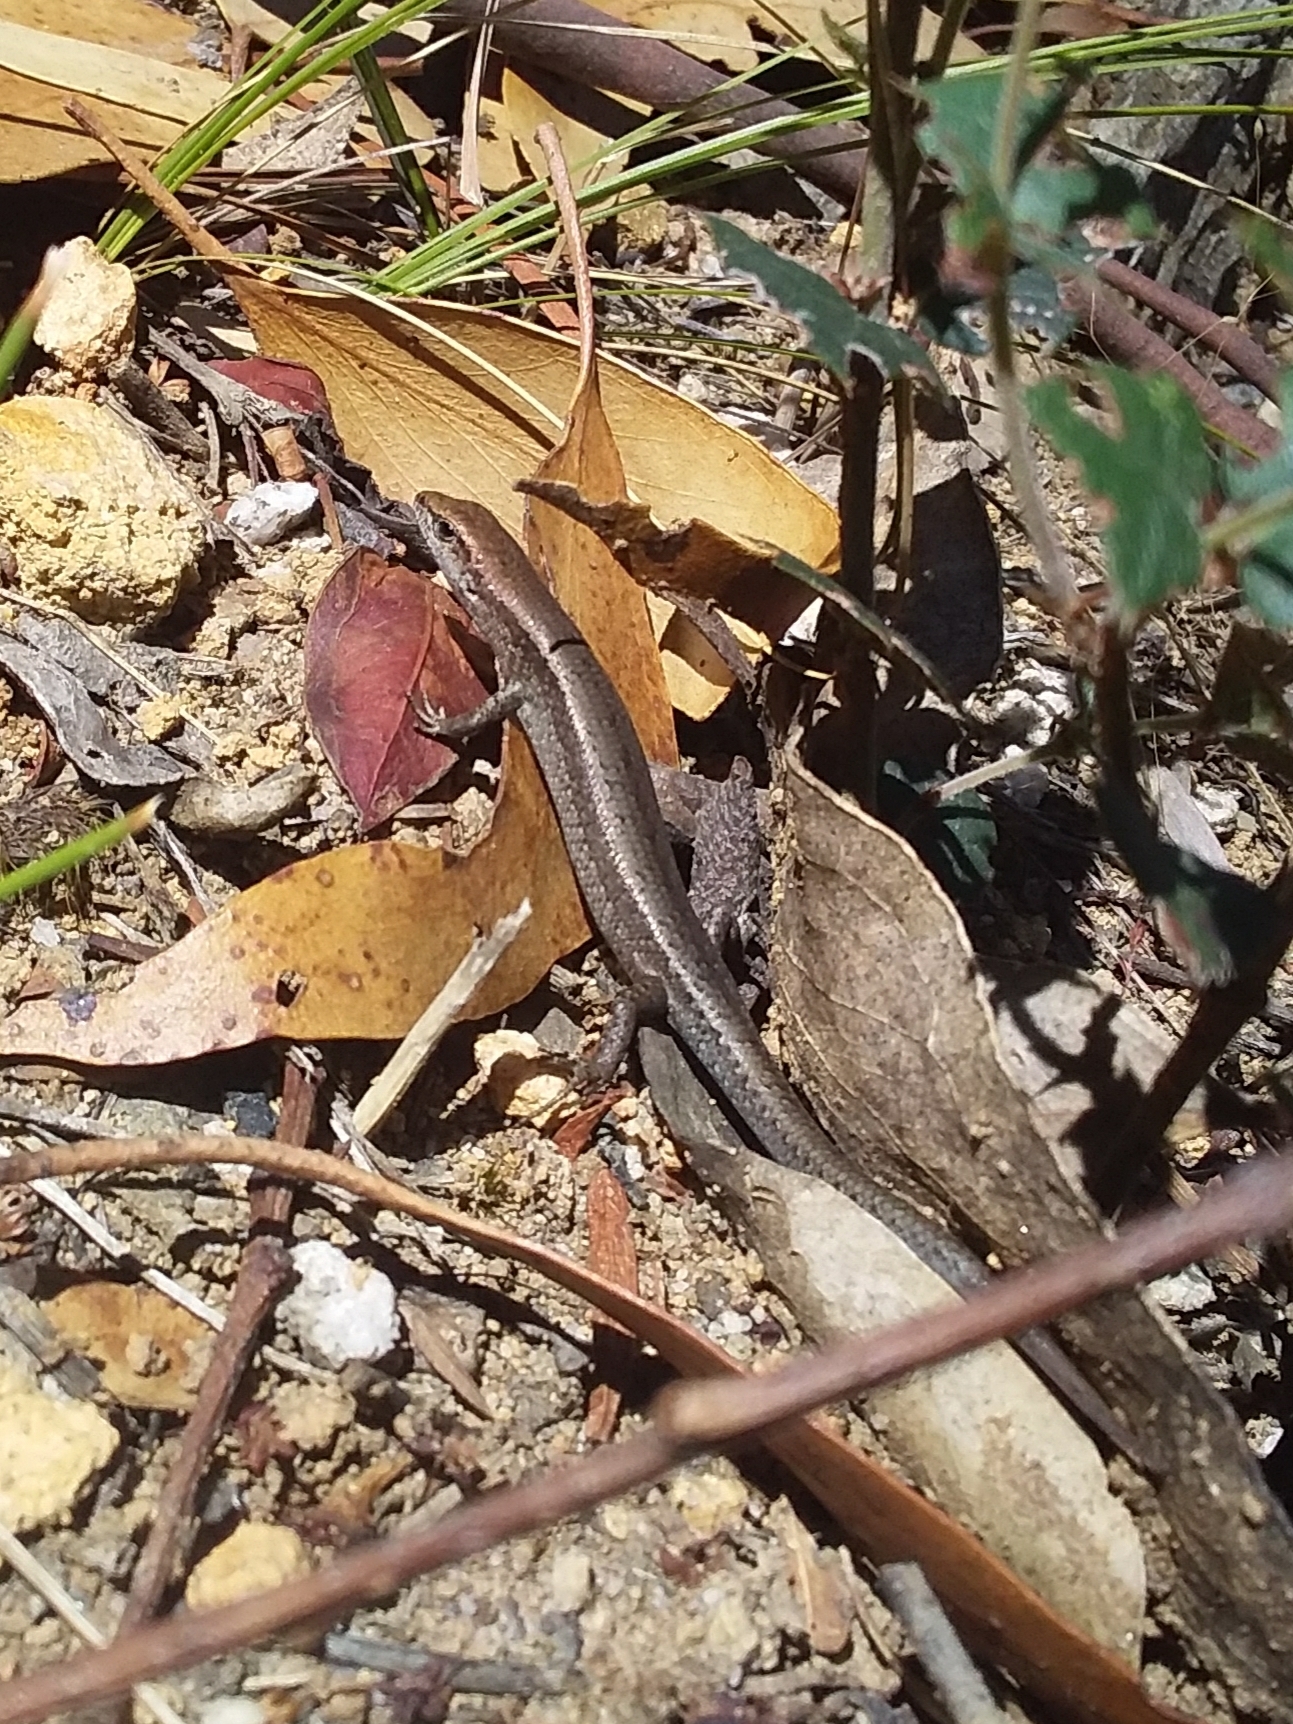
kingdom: Animalia
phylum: Chordata
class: Squamata
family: Scincidae
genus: Lampropholis
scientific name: Lampropholis guichenoti
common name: Garden skink
